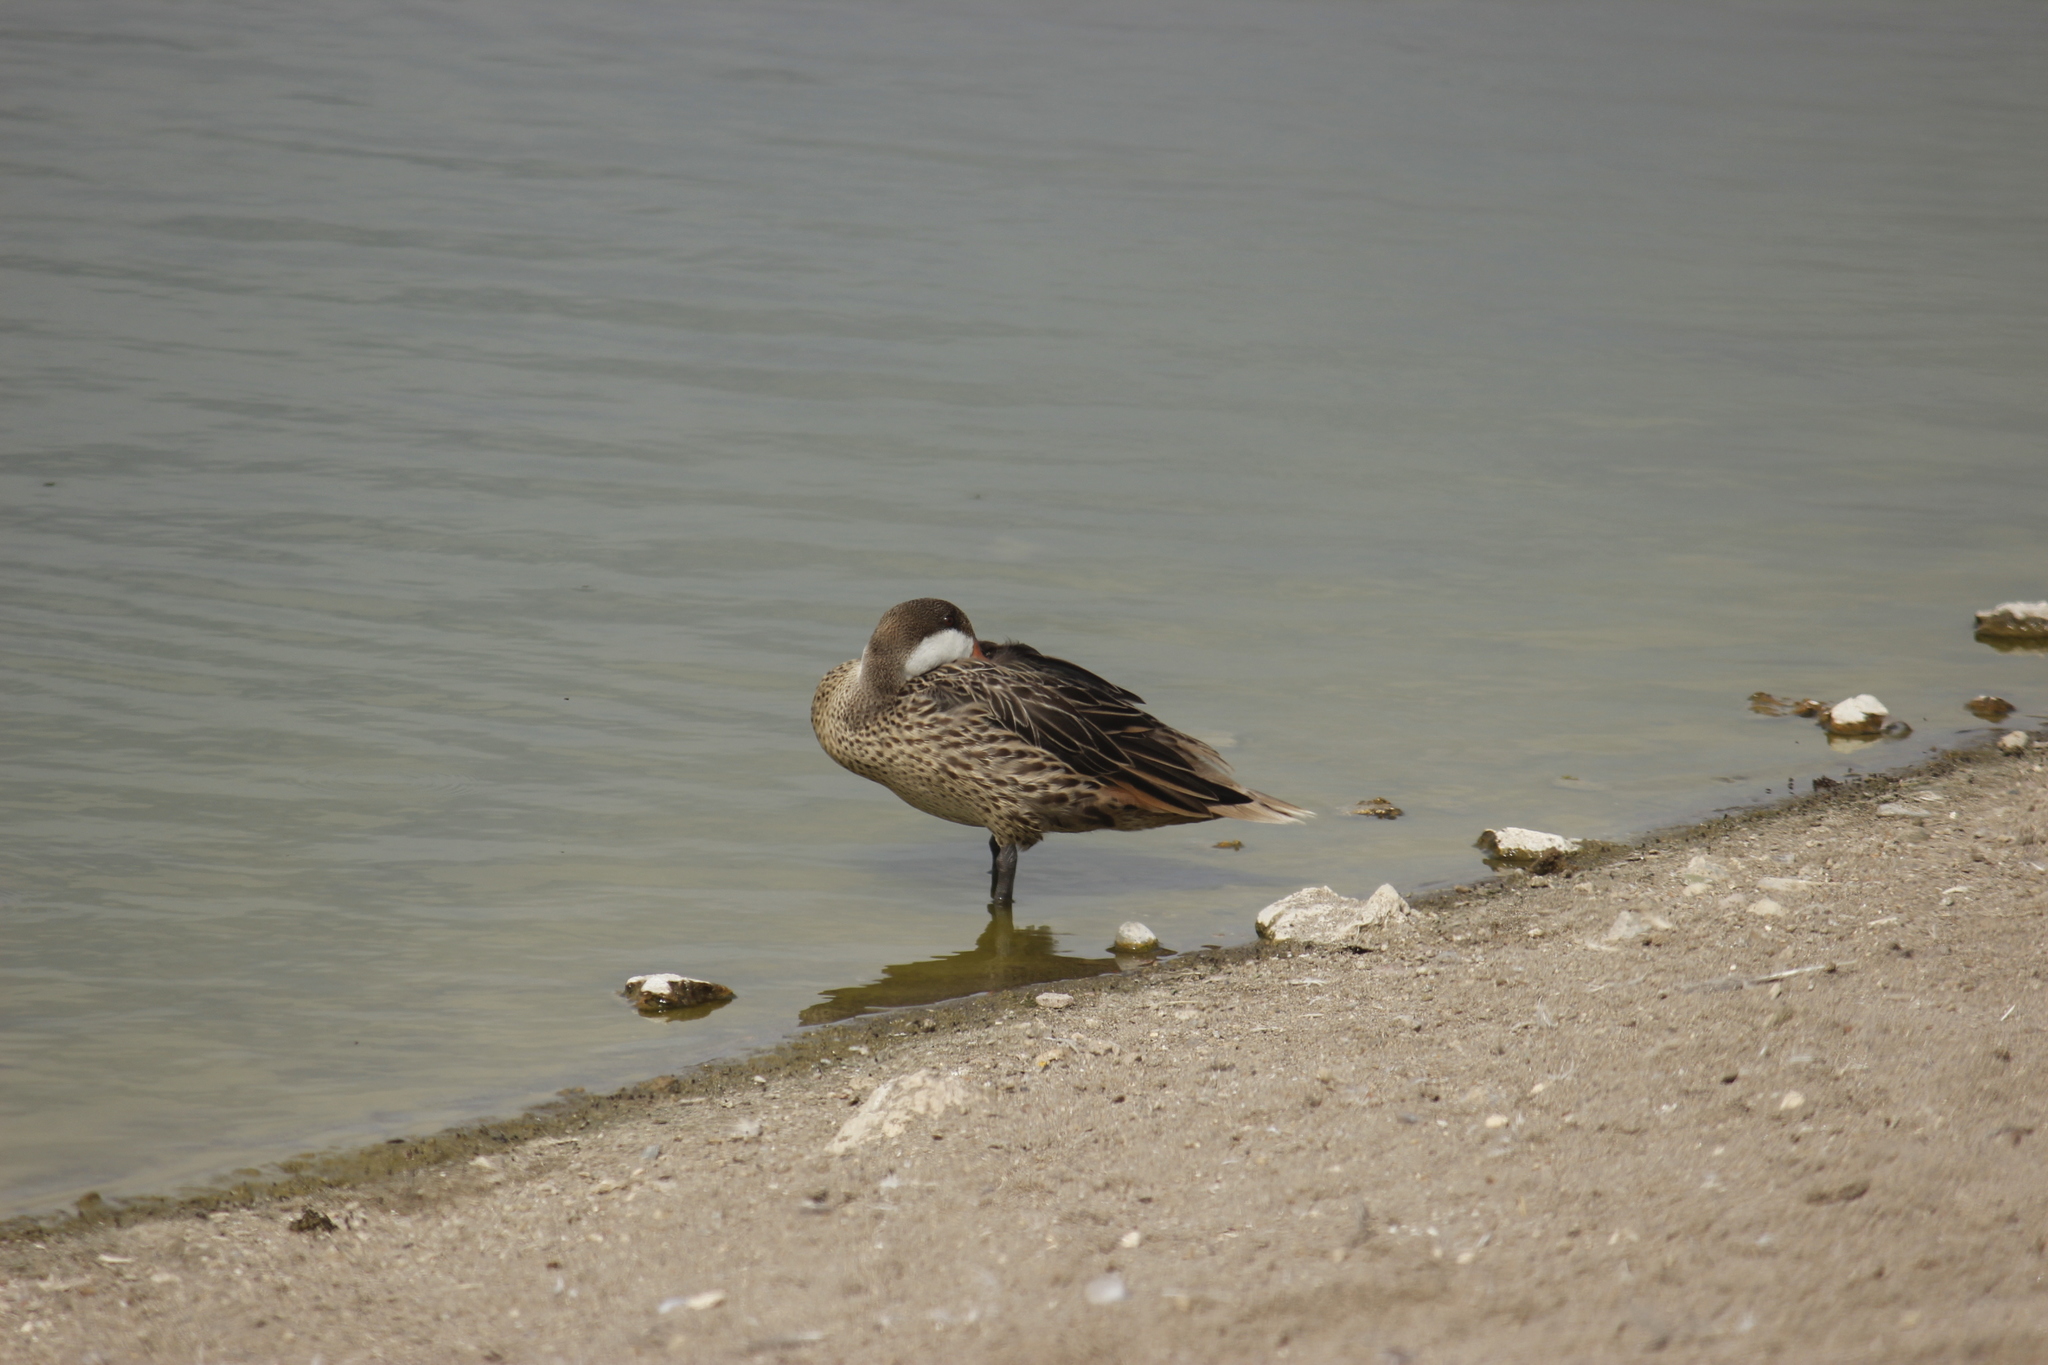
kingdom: Animalia
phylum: Chordata
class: Aves
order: Anseriformes
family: Anatidae
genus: Anas
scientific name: Anas bahamensis
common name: White-cheeked pintail
